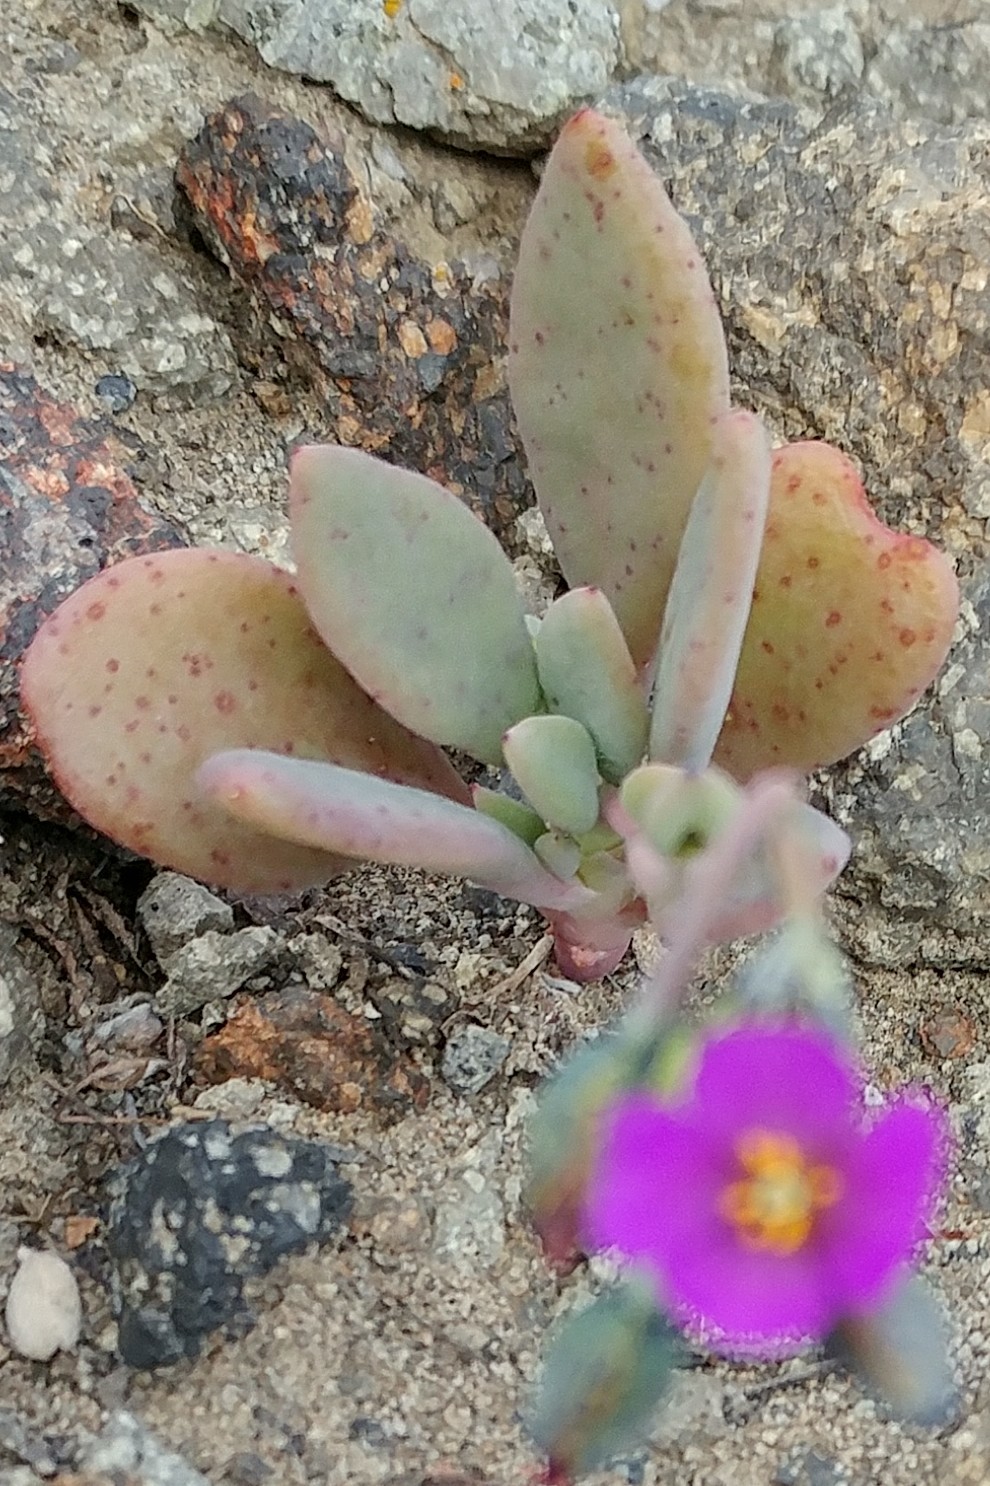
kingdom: Plantae
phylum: Tracheophyta
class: Magnoliopsida
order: Caryophyllales
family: Montiaceae
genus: Cistanthe
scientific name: Cistanthe maritima
